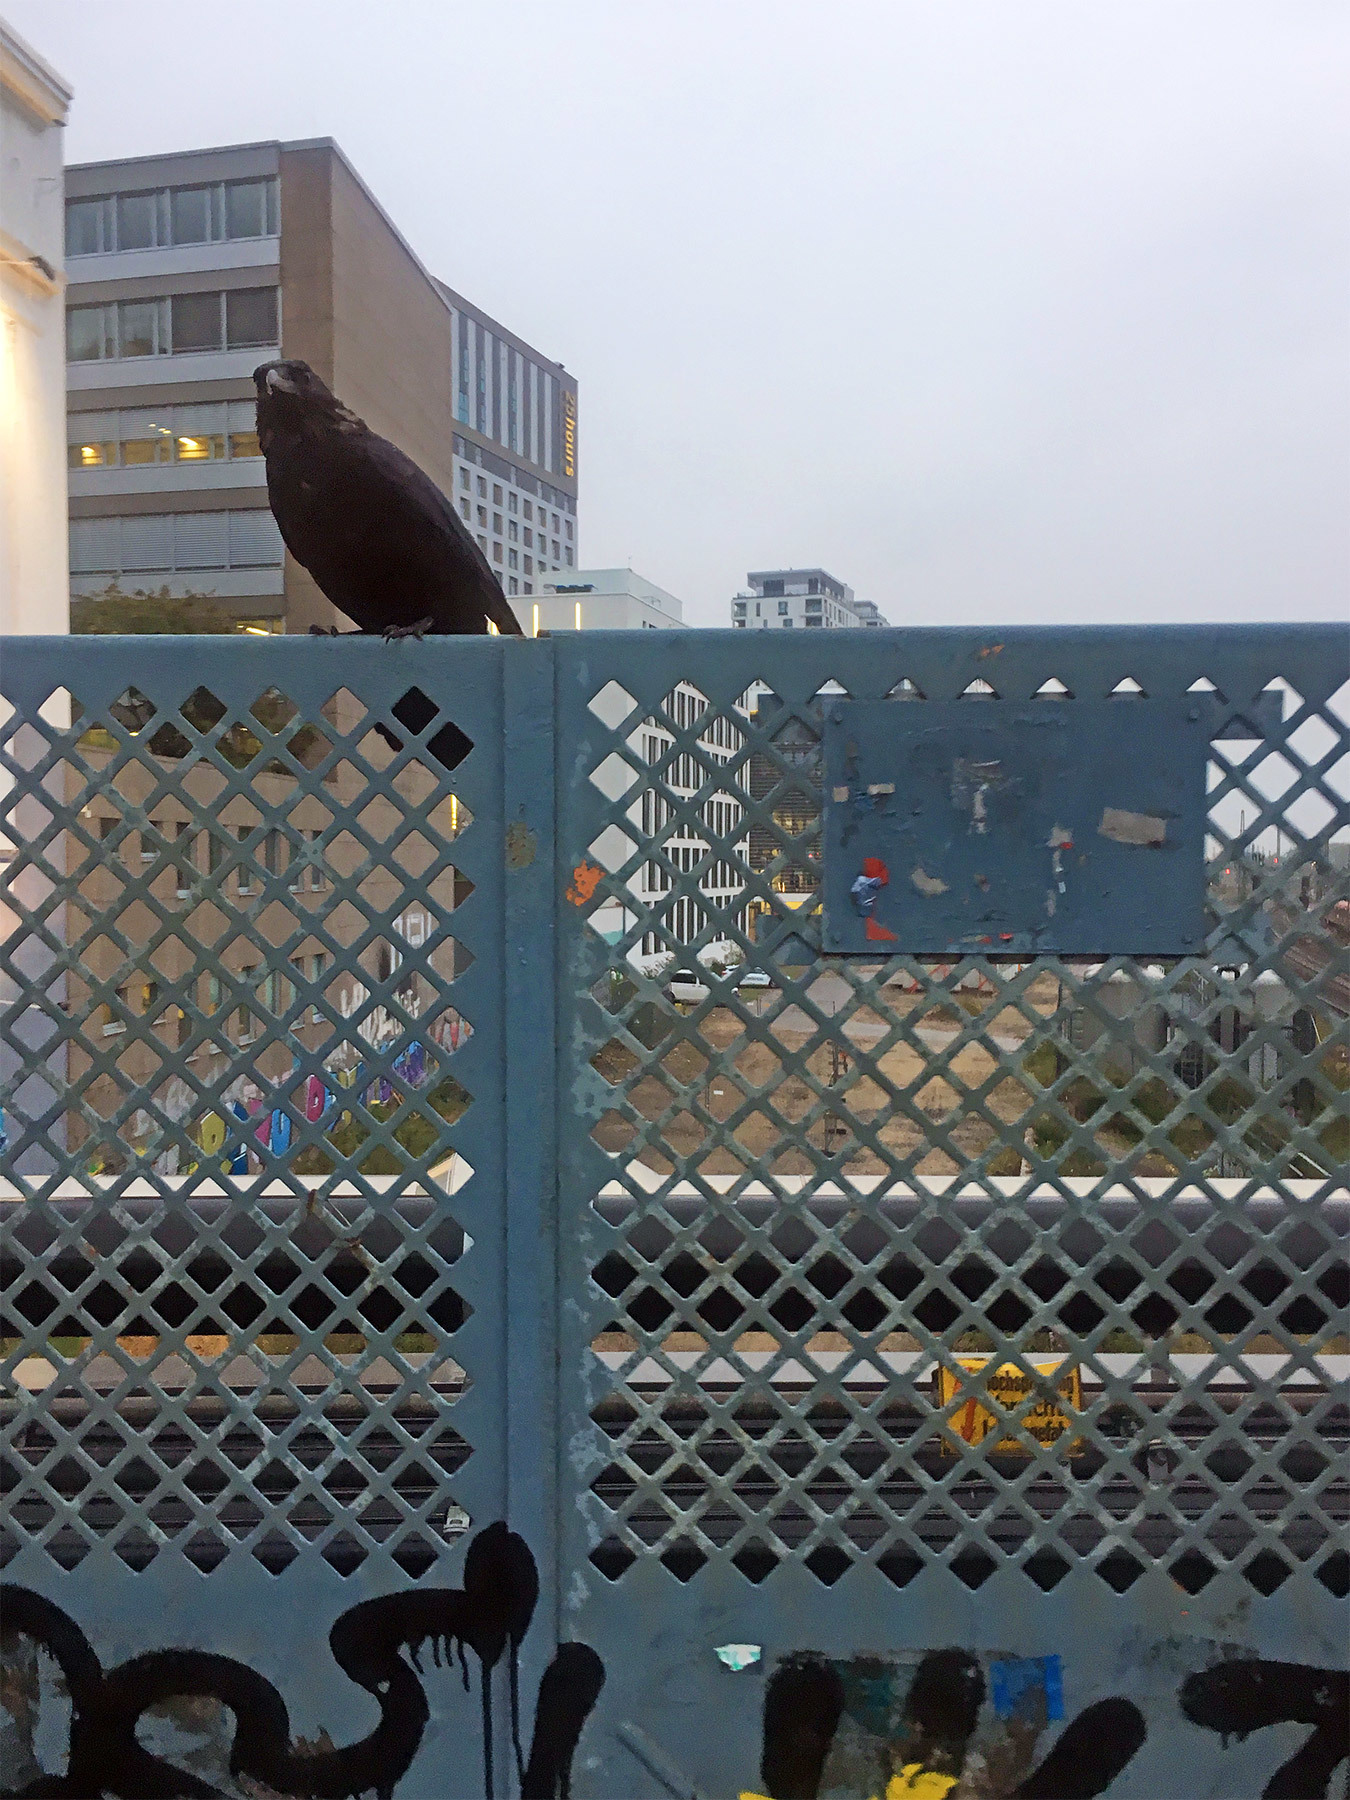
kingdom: Animalia
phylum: Chordata
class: Aves
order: Passeriformes
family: Corvidae
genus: Corvus
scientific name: Corvus corone
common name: Carrion crow
